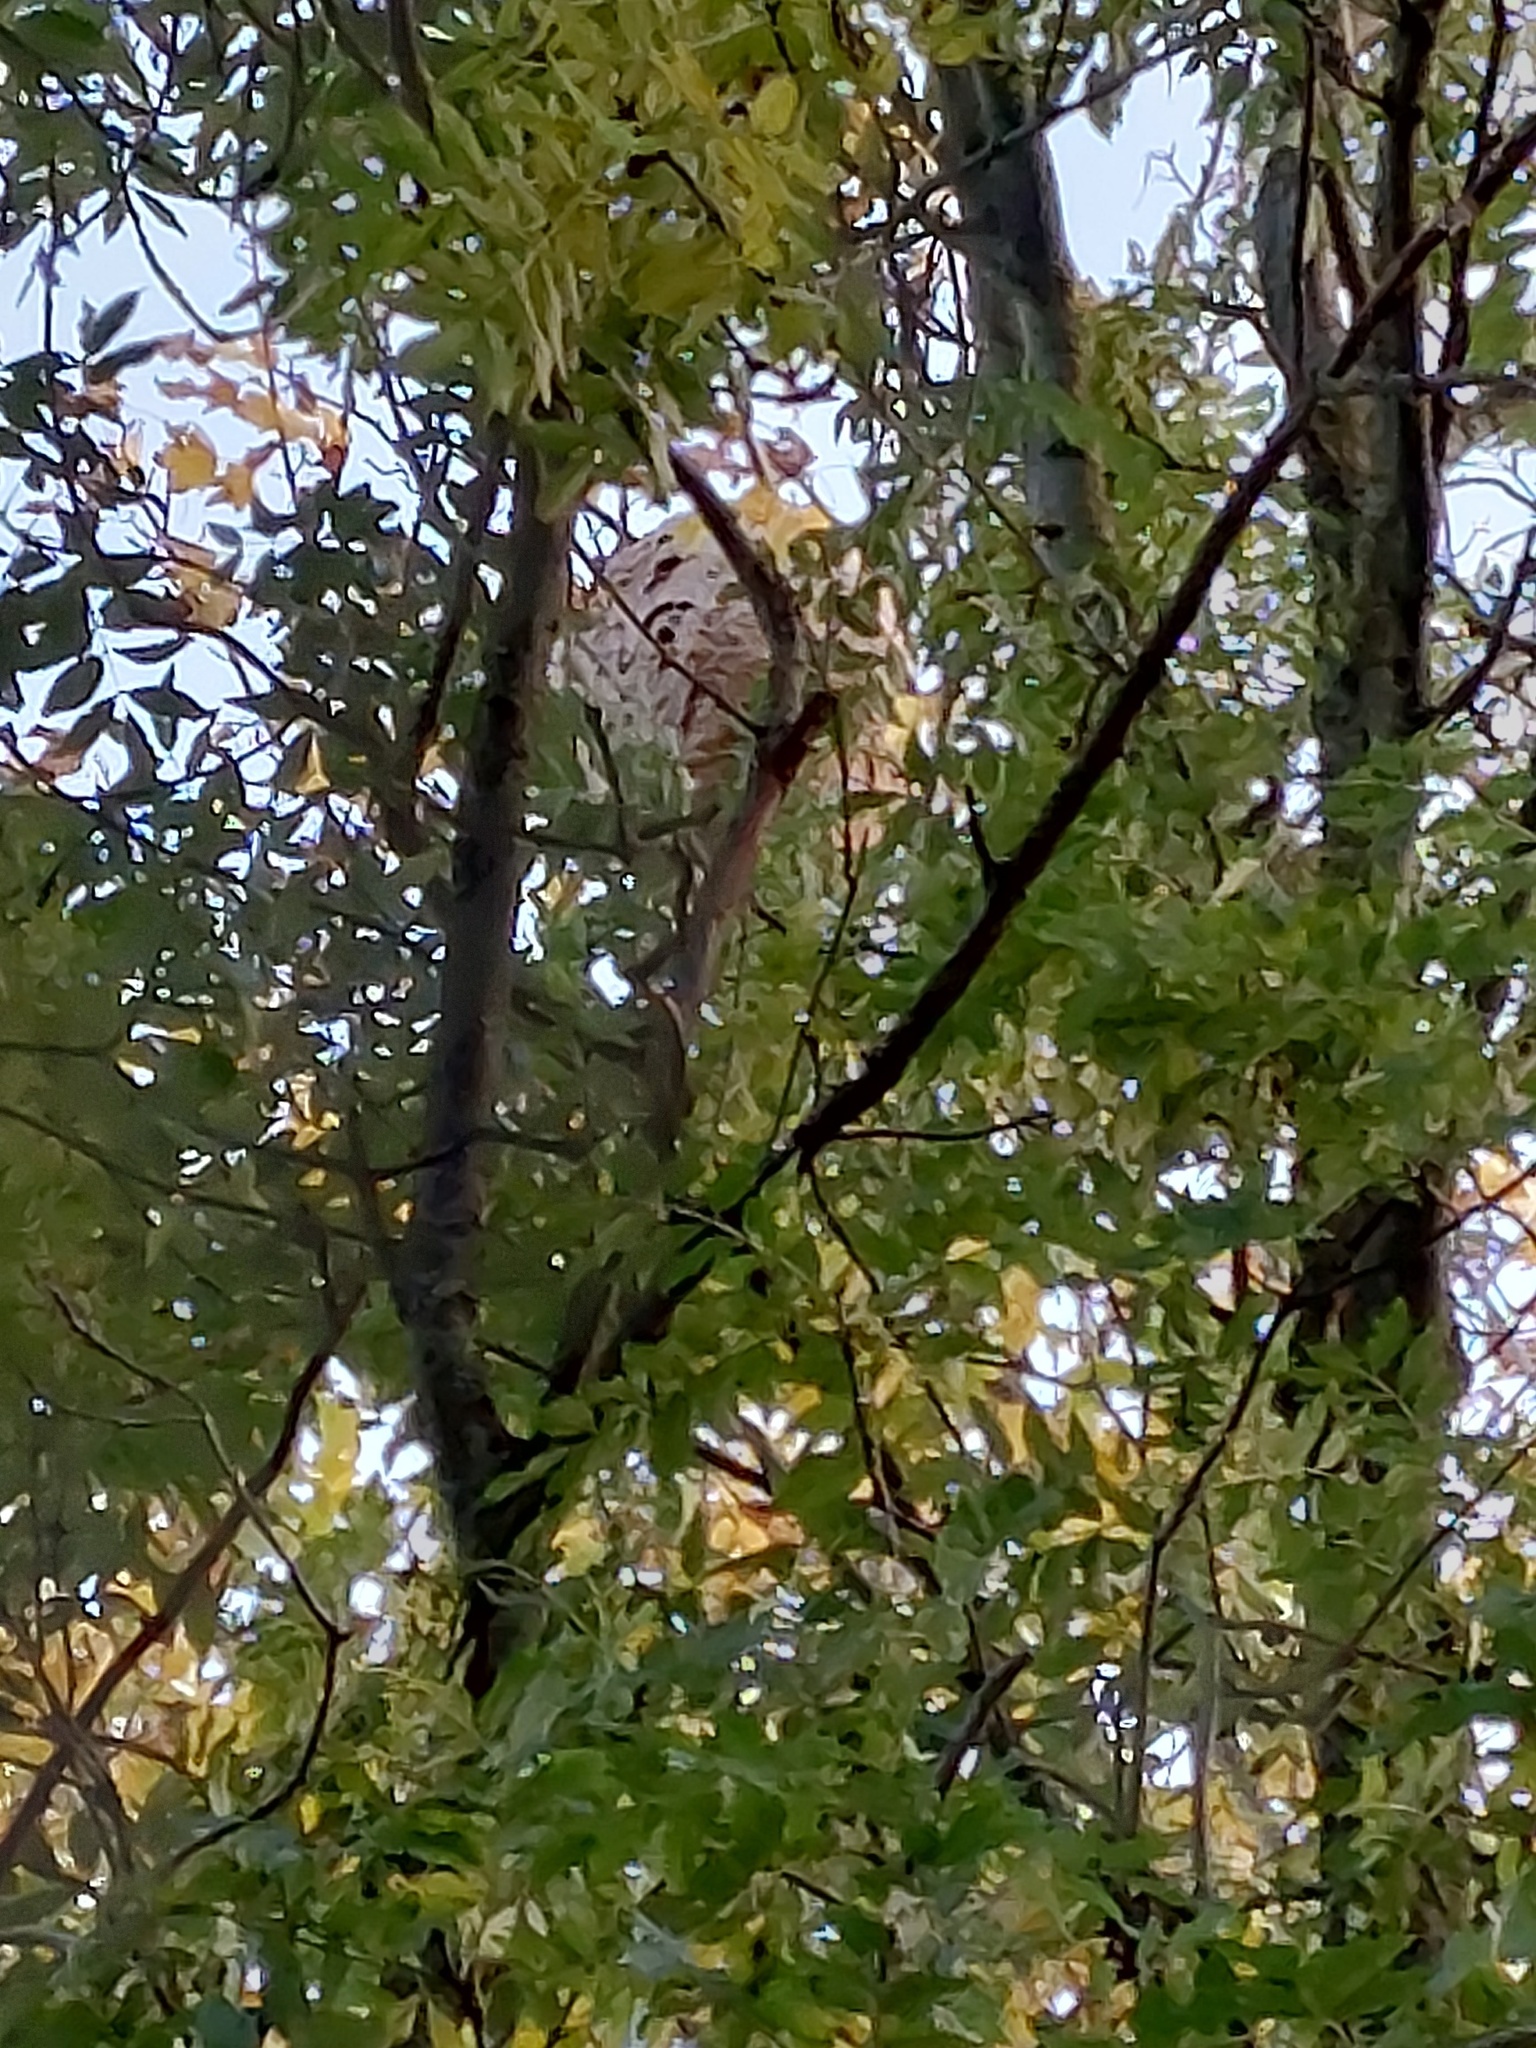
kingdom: Animalia
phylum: Arthropoda
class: Insecta
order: Hymenoptera
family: Vespidae
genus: Vespa
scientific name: Vespa velutina
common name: Asian hornet
